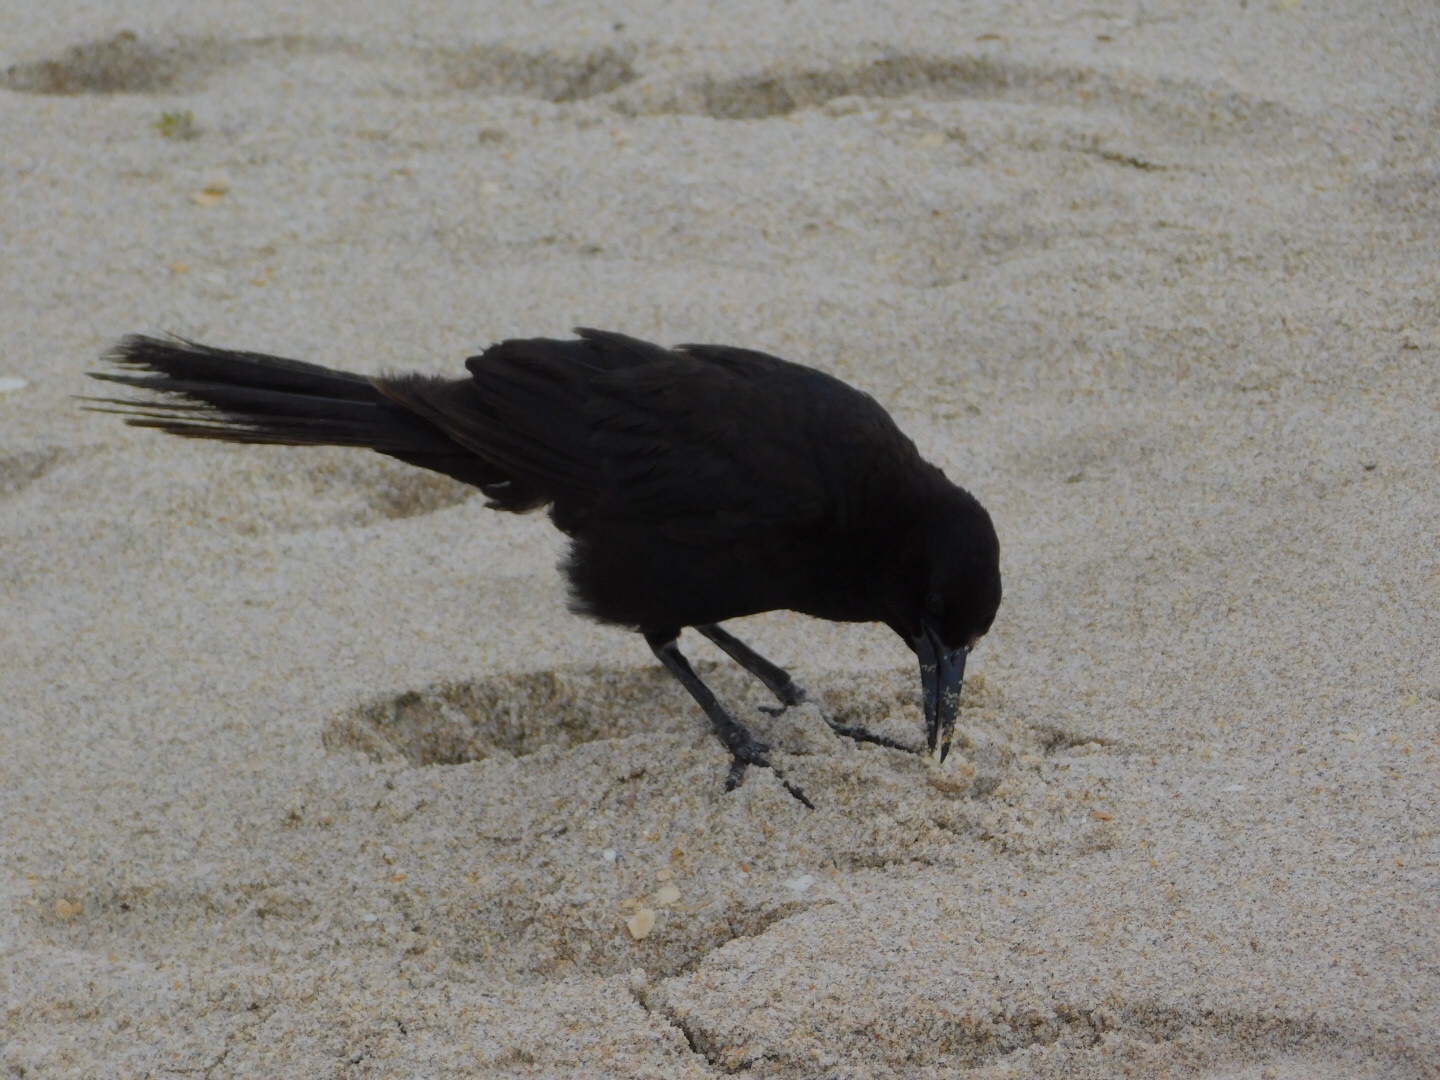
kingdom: Animalia
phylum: Chordata
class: Aves
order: Passeriformes
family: Icteridae
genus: Quiscalus
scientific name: Quiscalus major
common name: Boat-tailed grackle
